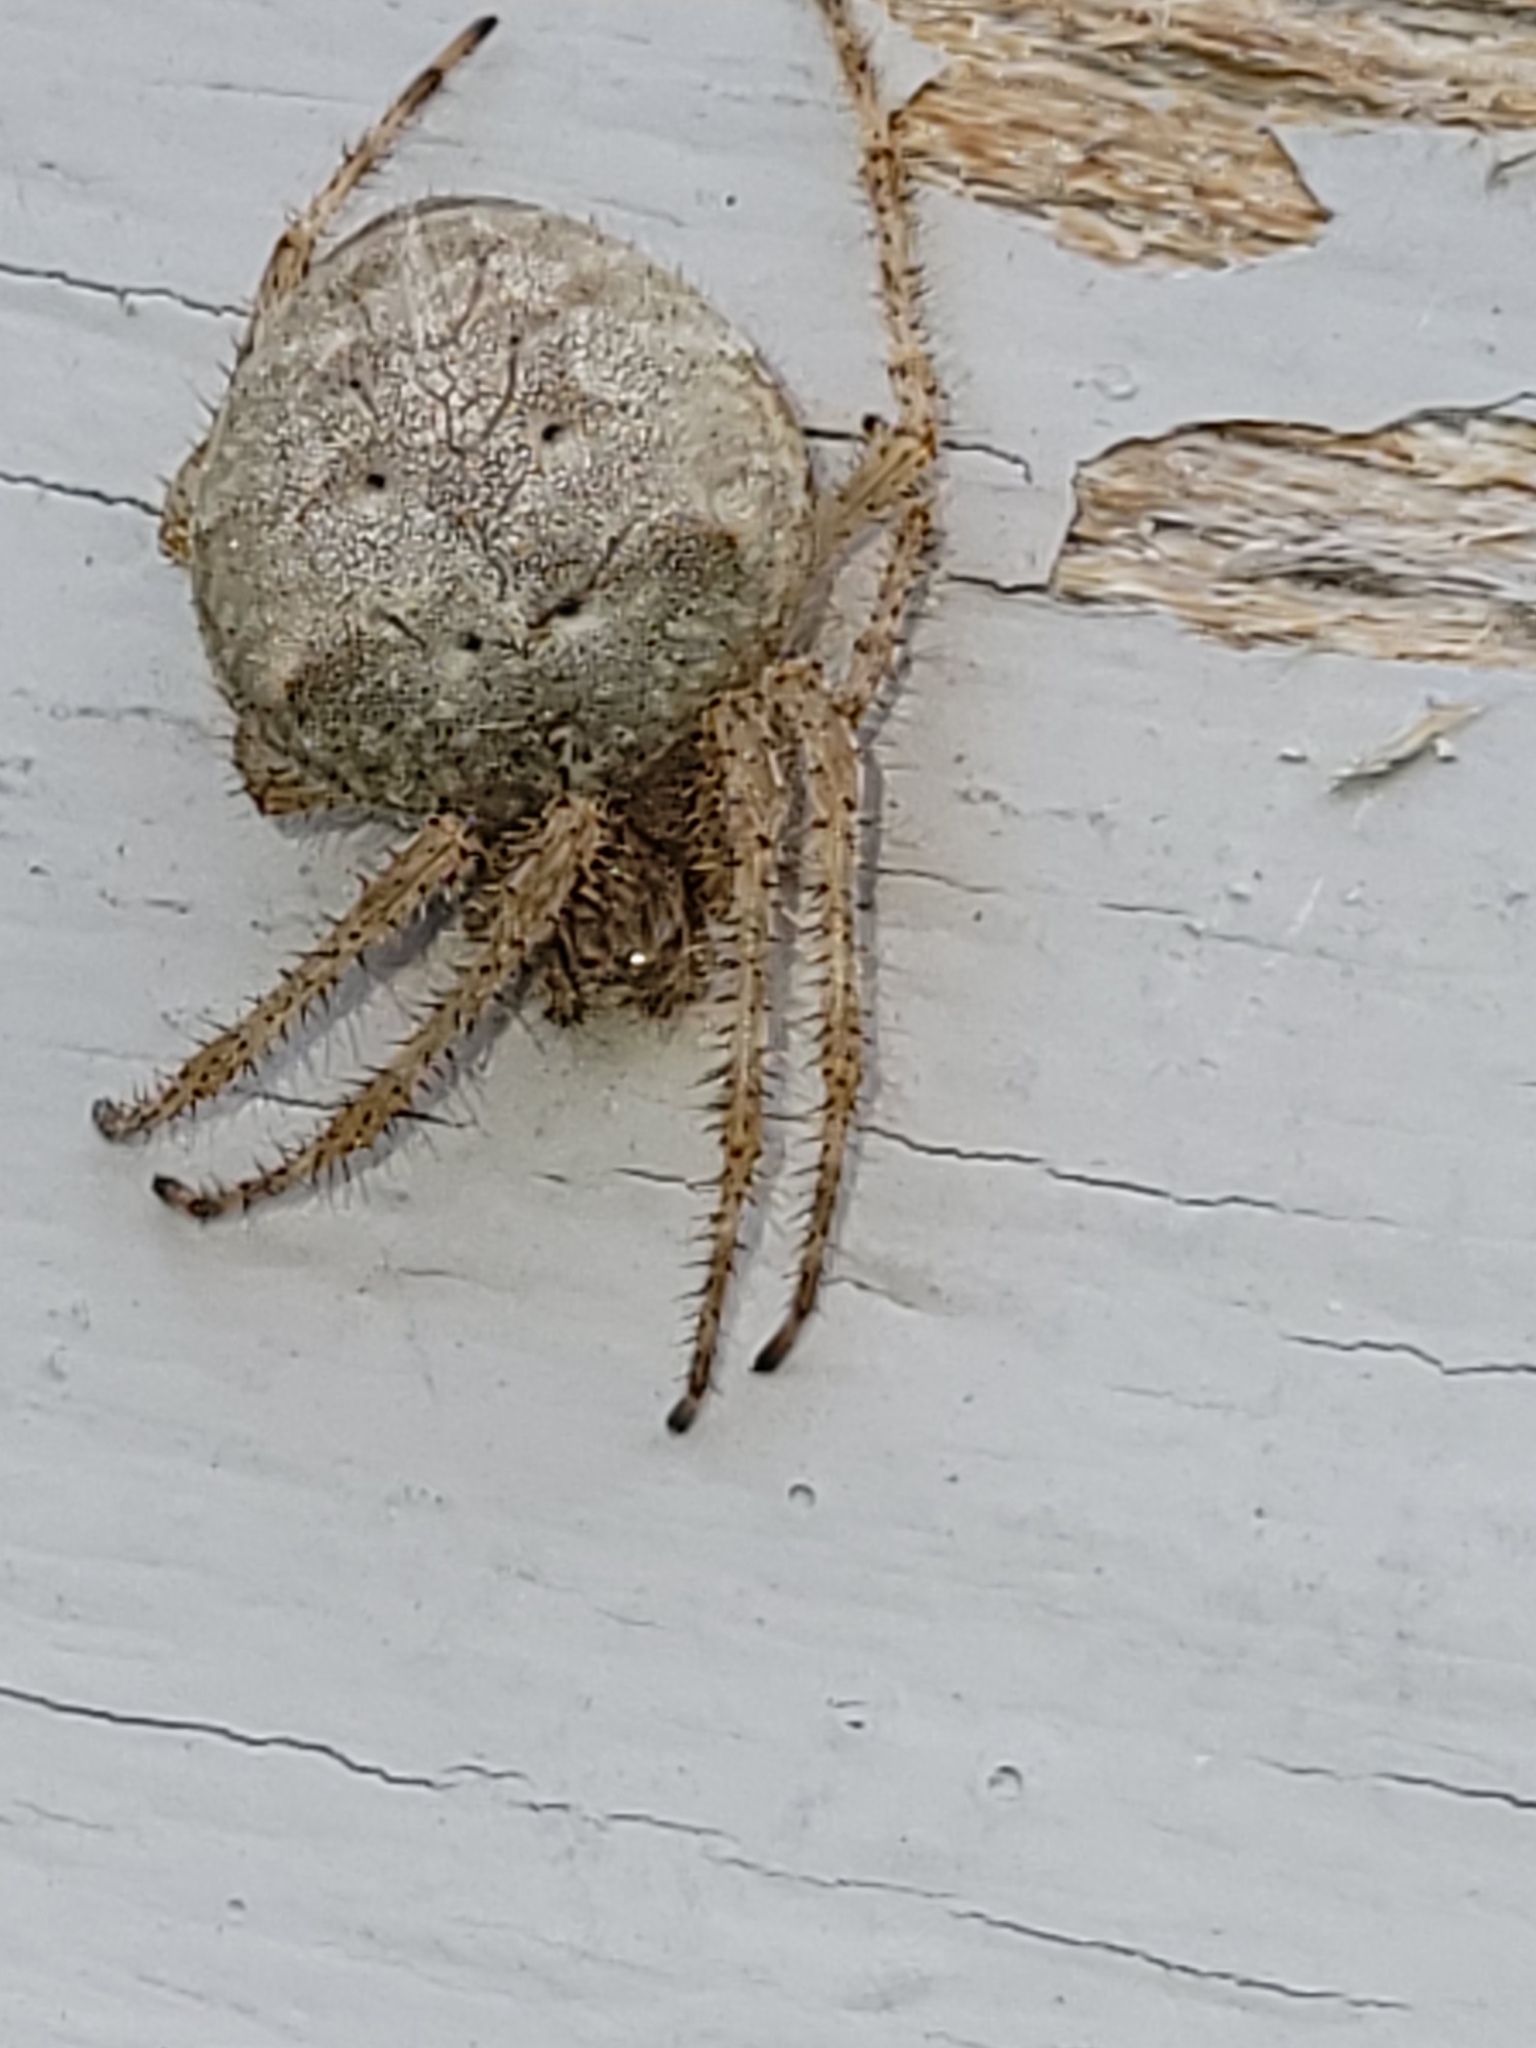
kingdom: Animalia
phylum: Arthropoda
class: Arachnida
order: Araneae
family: Araneidae
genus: Araneus
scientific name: Araneus cavaticus
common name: Barn orbweaver
